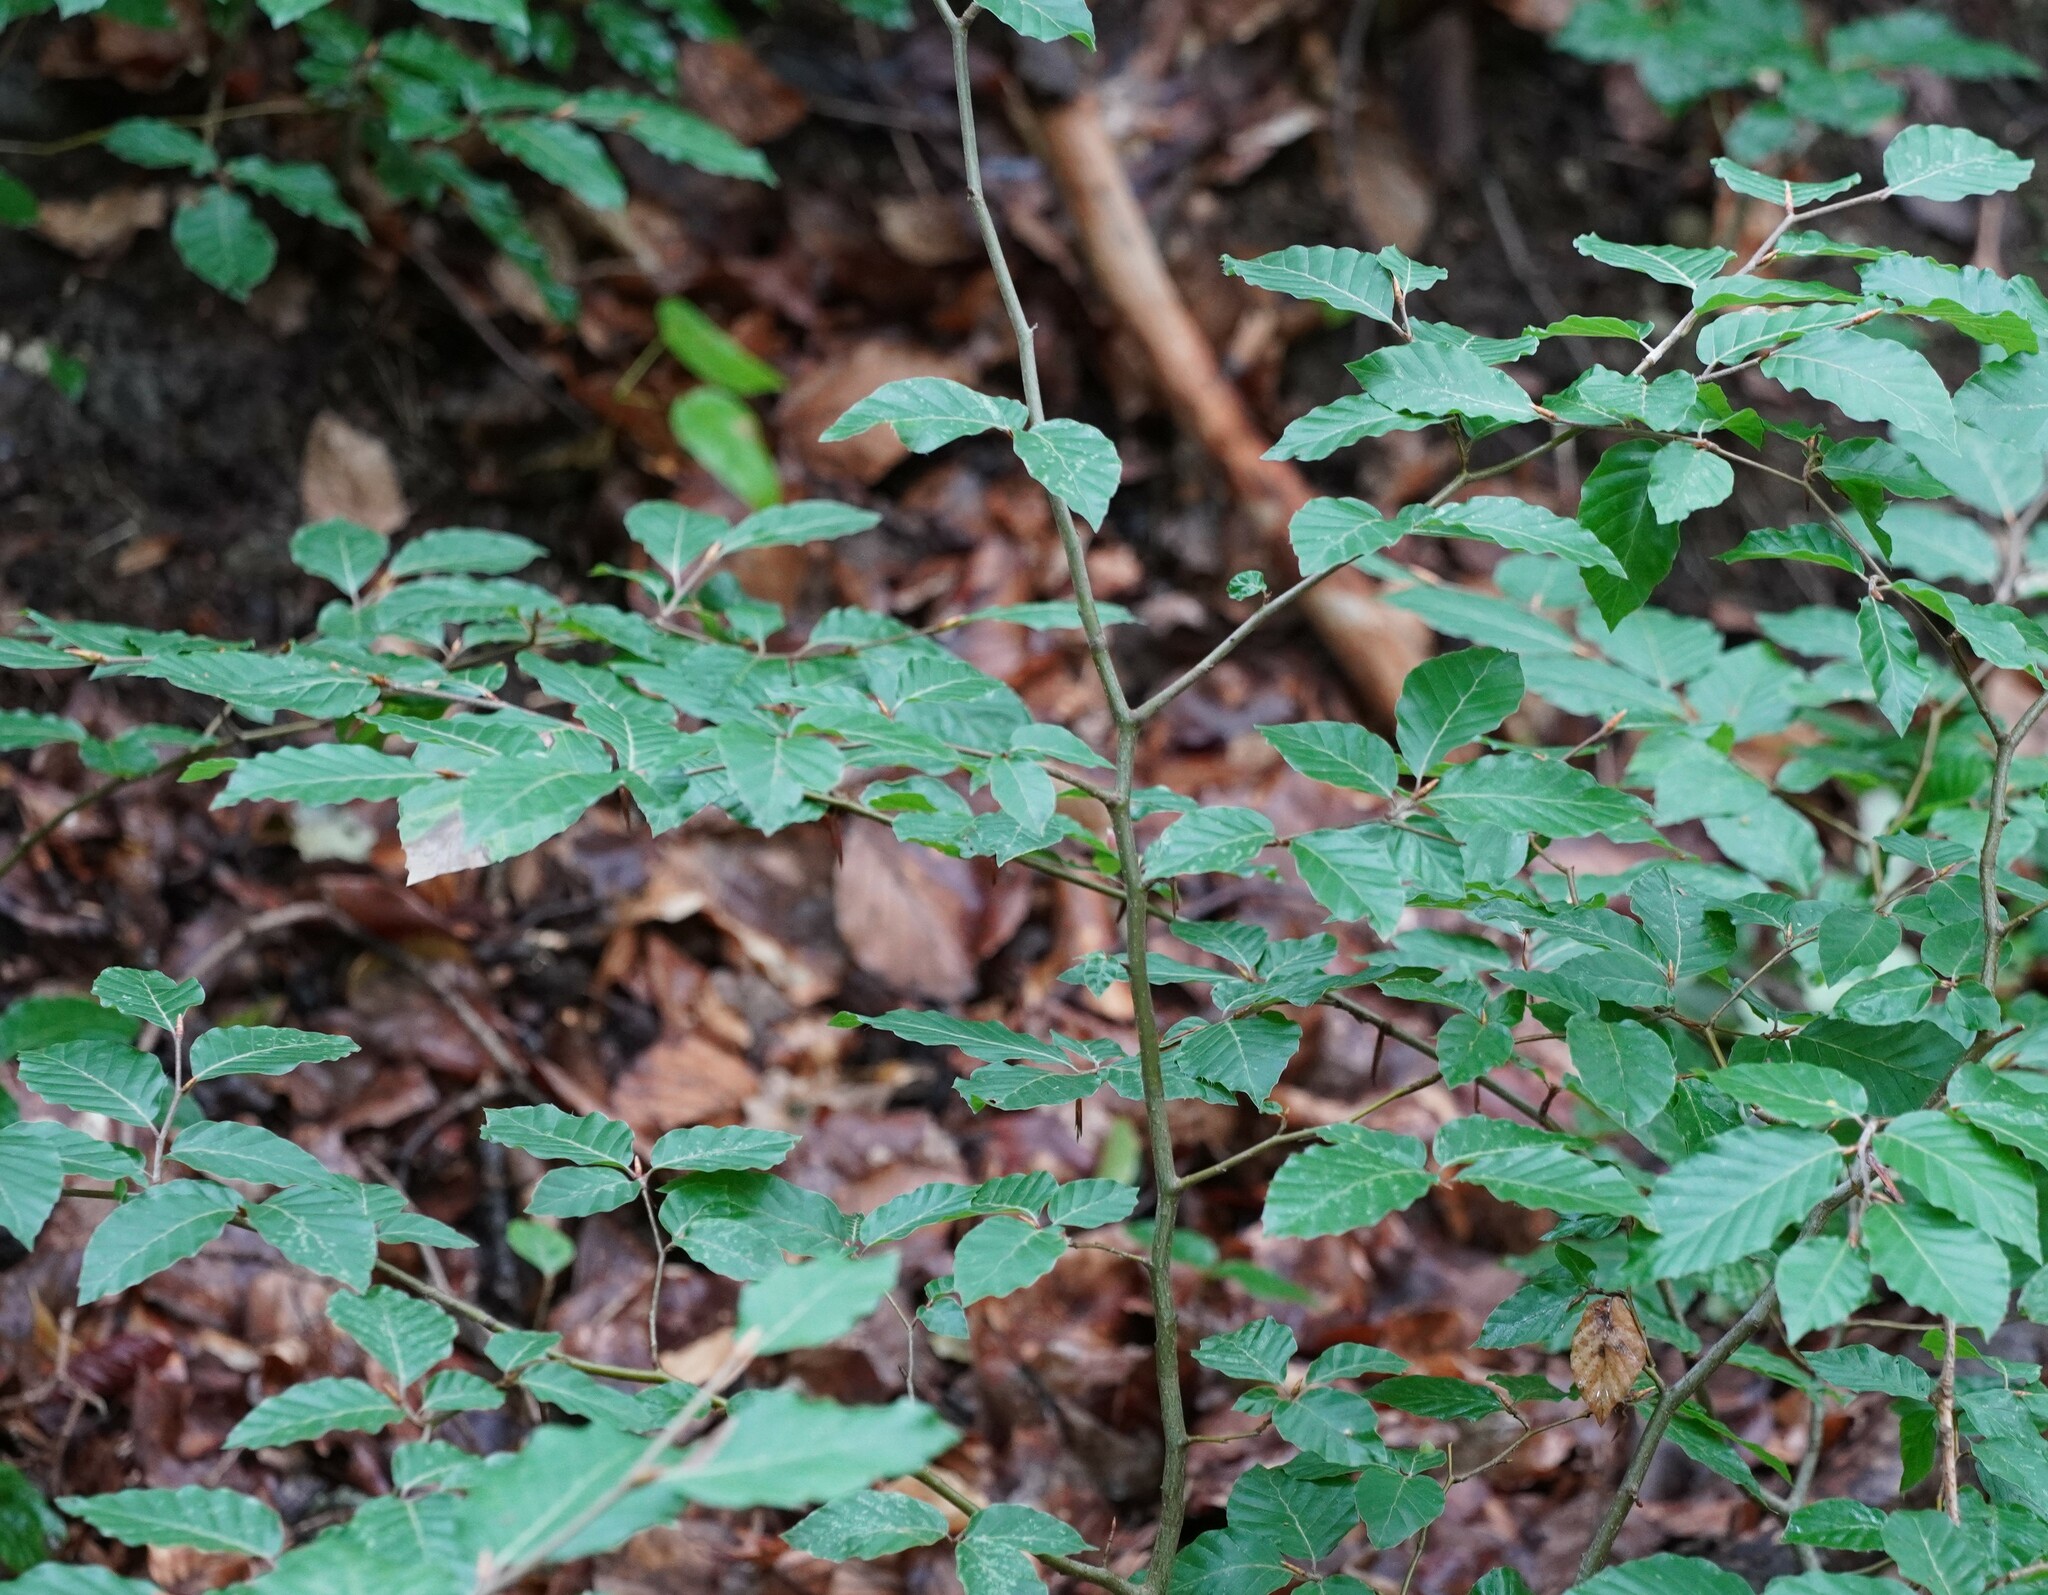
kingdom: Plantae
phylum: Tracheophyta
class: Magnoliopsida
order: Fagales
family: Fagaceae
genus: Fagus
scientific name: Fagus sylvatica
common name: Beech
